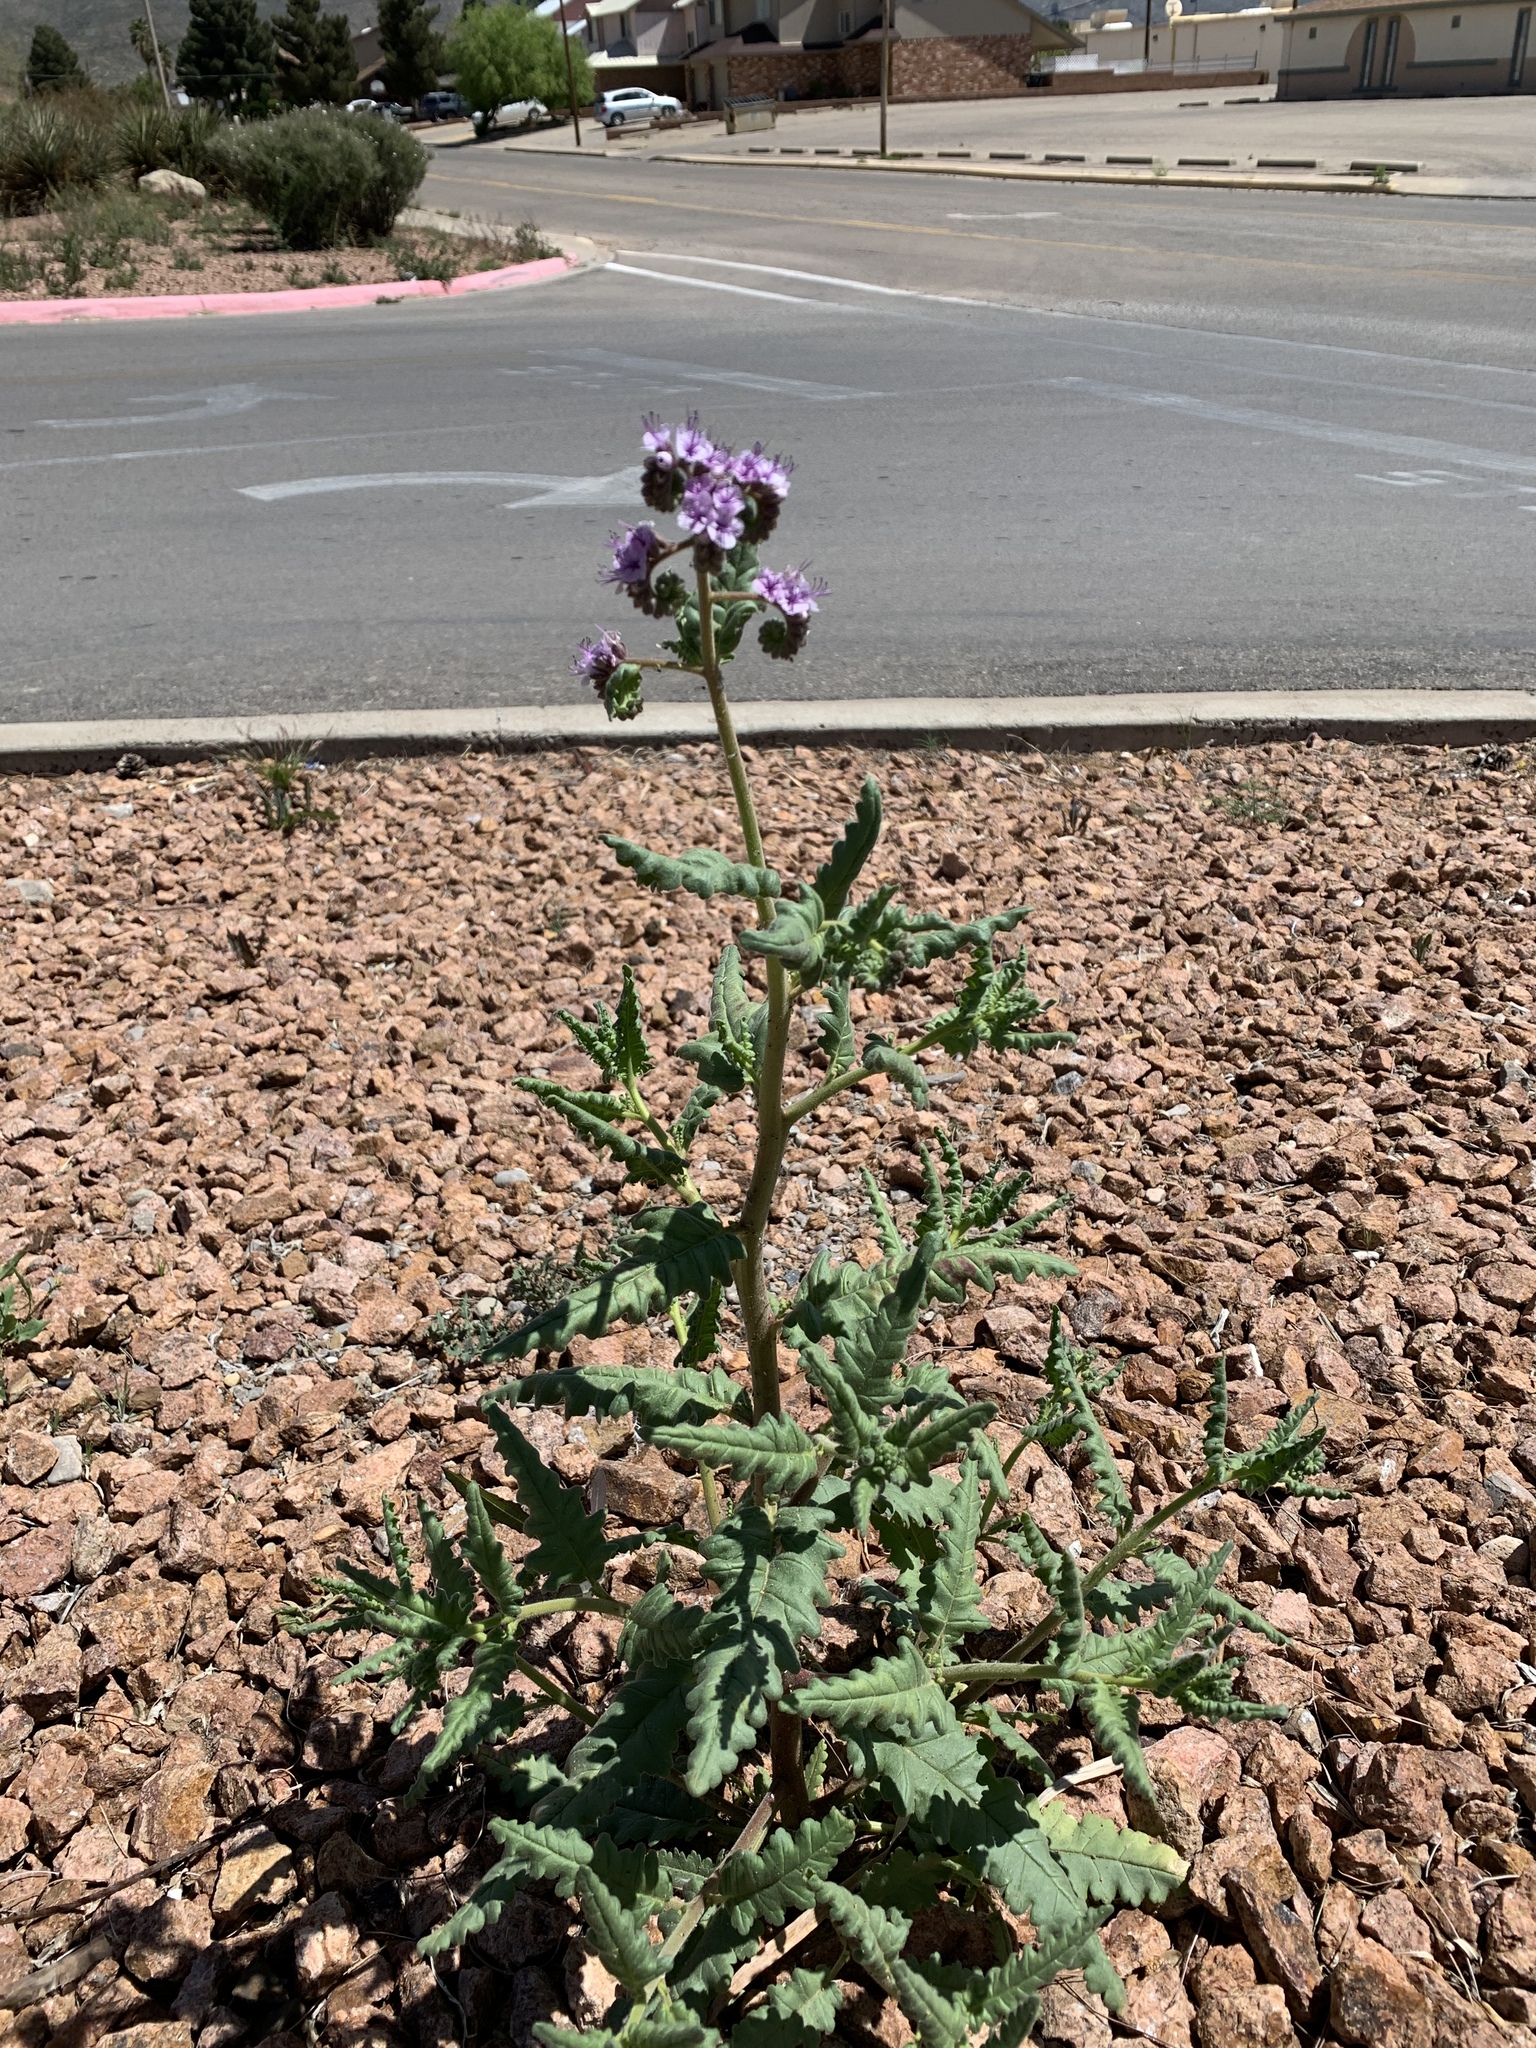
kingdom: Plantae
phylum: Tracheophyta
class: Magnoliopsida
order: Boraginales
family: Hydrophyllaceae
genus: Phacelia
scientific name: Phacelia integrifolia
